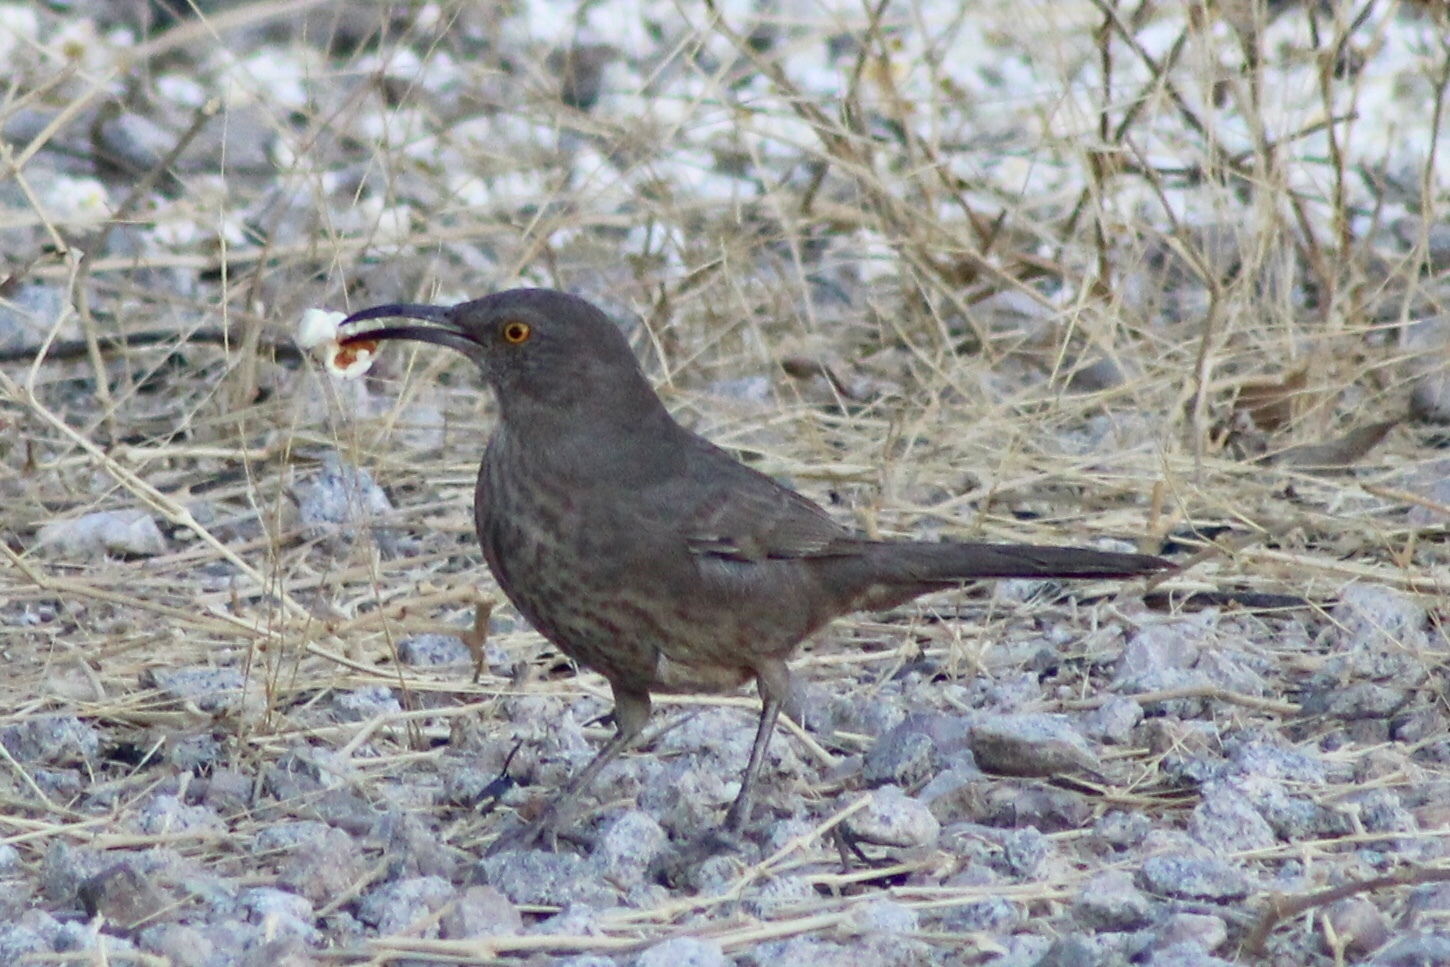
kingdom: Animalia
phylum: Chordata
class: Aves
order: Passeriformes
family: Mimidae
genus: Toxostoma
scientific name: Toxostoma curvirostre
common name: Curve-billed thrasher
